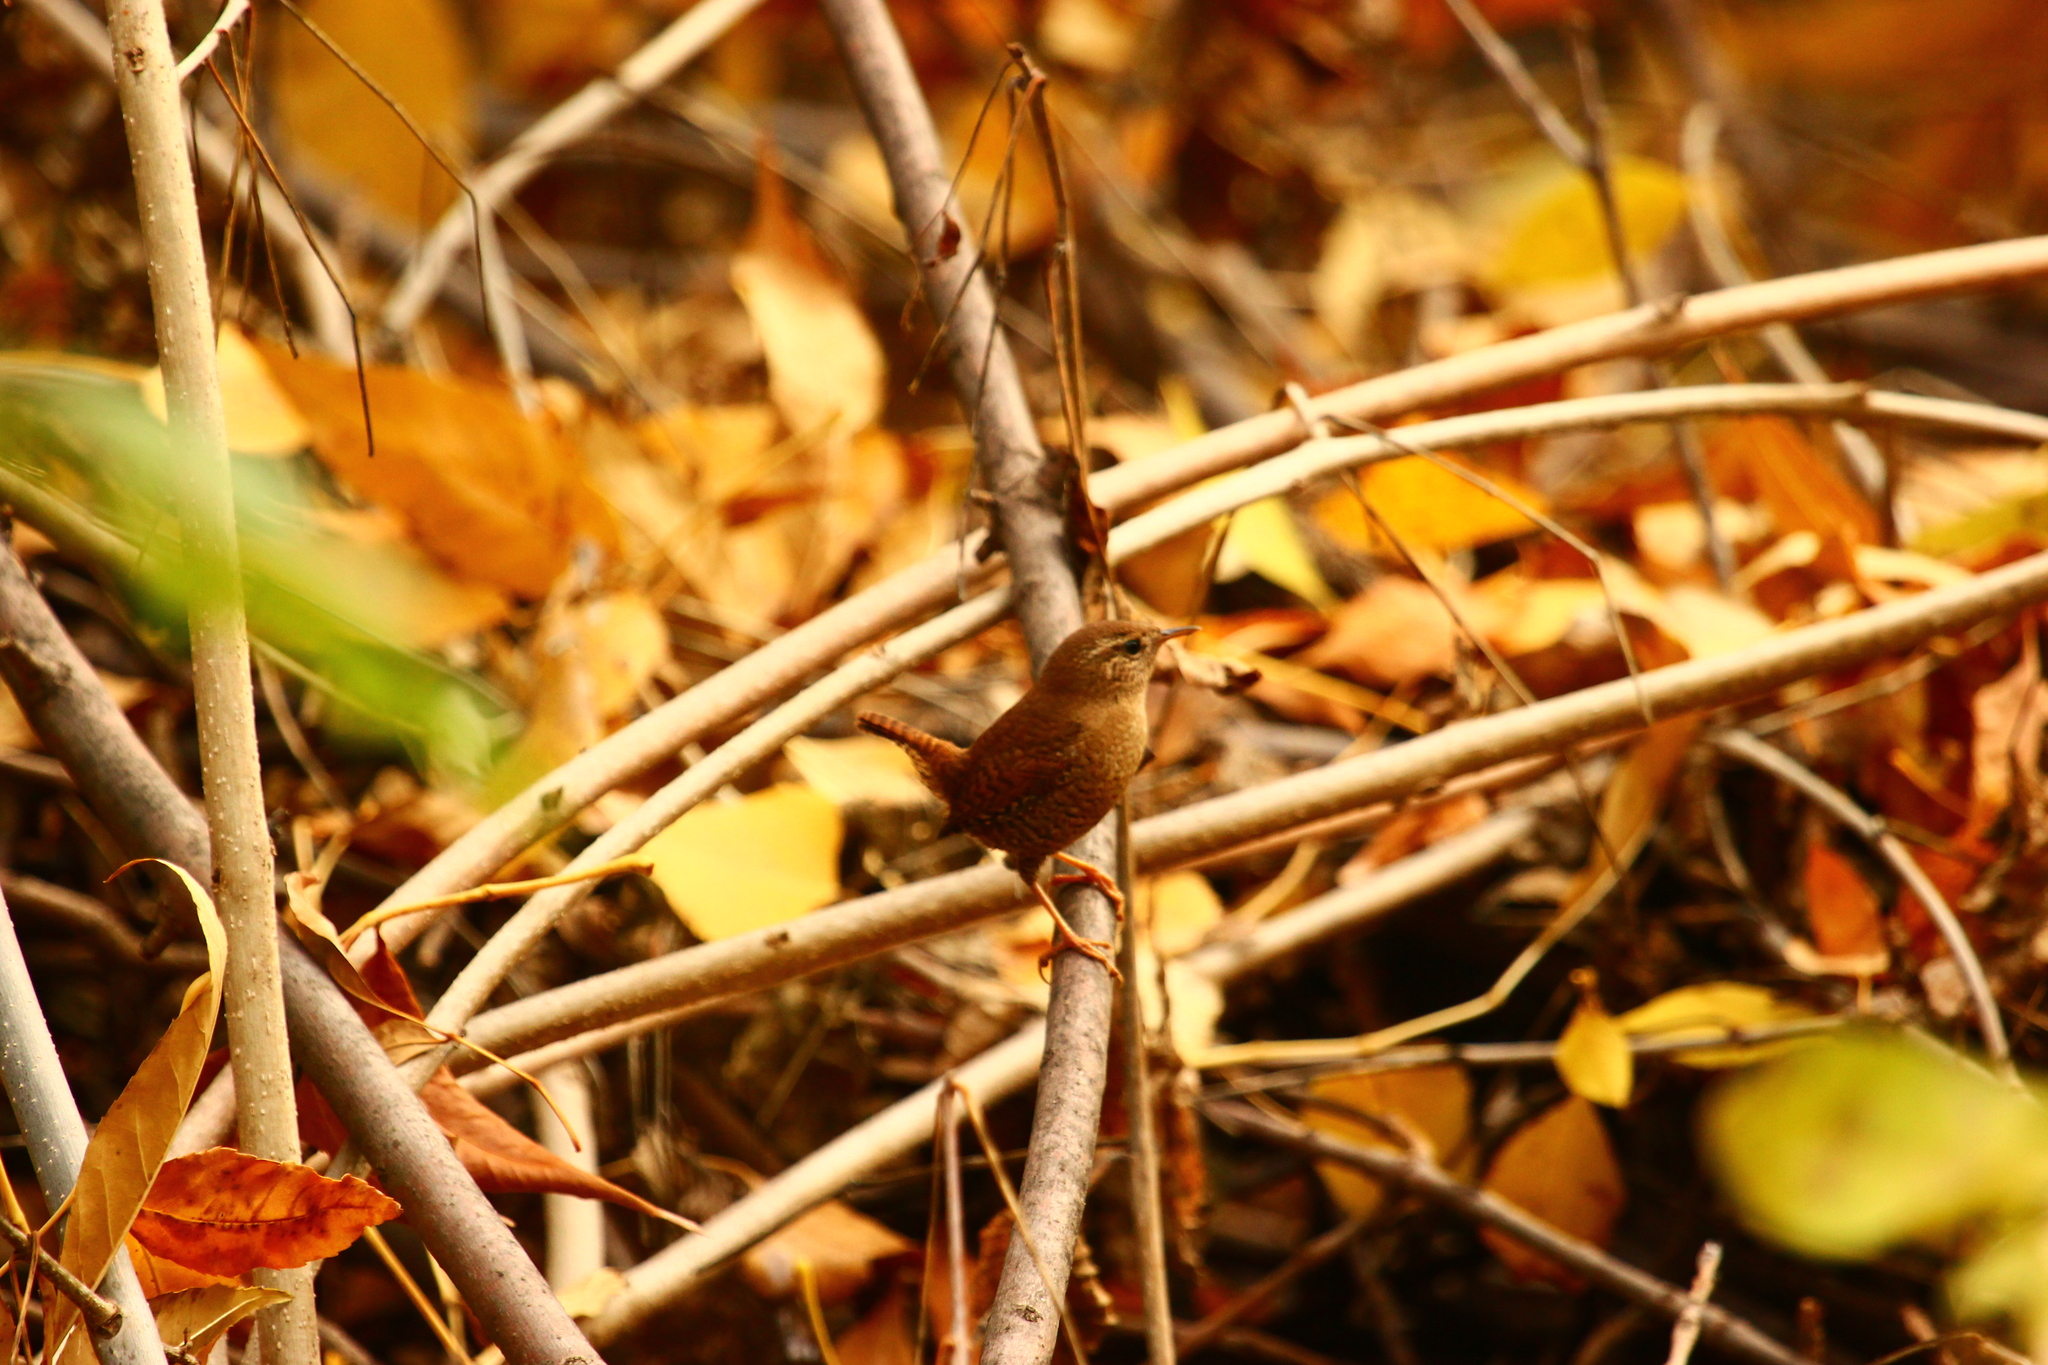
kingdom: Animalia
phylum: Chordata
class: Aves
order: Passeriformes
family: Troglodytidae
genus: Troglodytes
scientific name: Troglodytes troglodytes
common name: Eurasian wren
